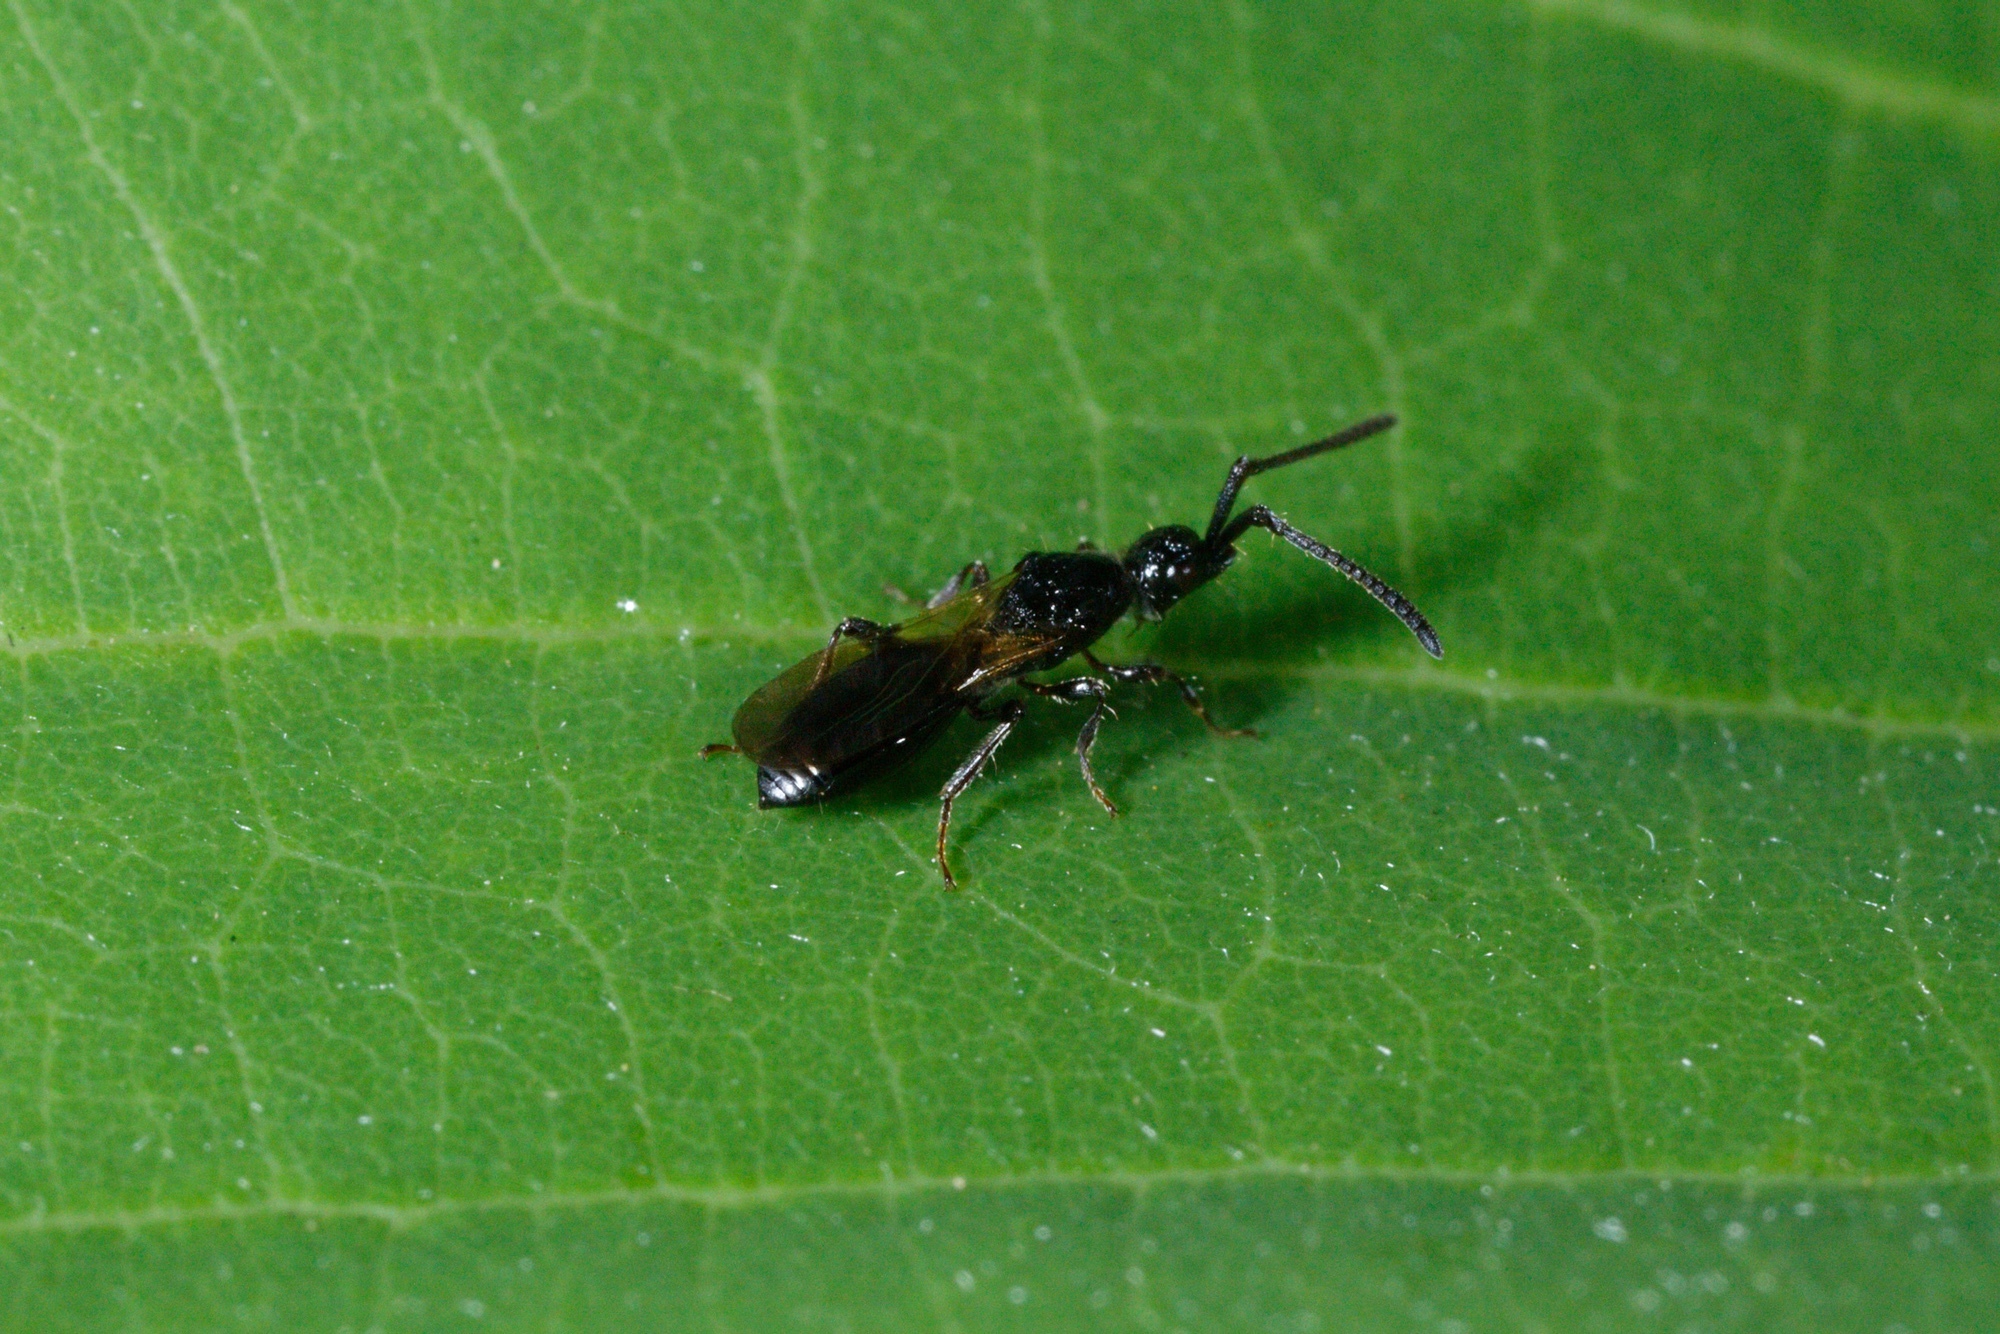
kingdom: Animalia
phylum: Arthropoda
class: Insecta
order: Hymenoptera
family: Diapriidae
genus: Neurogalesus
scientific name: Neurogalesus carinatus
